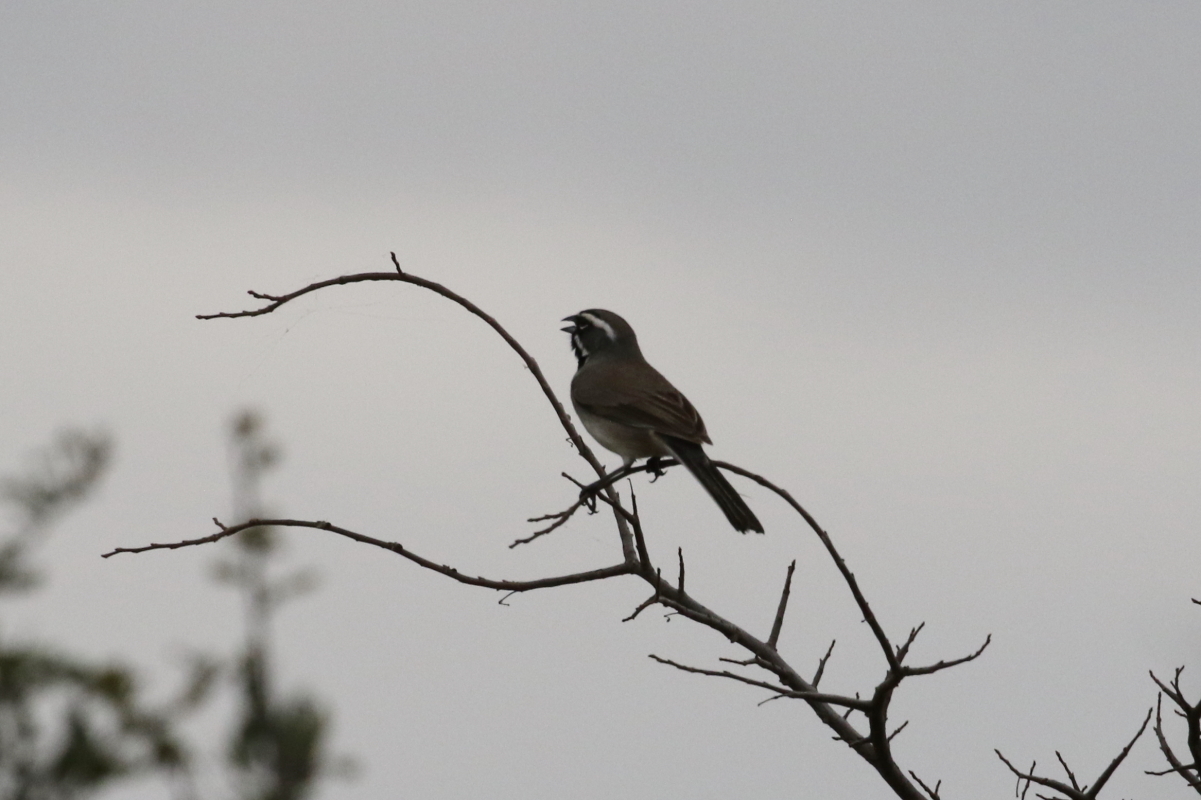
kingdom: Animalia
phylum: Chordata
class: Aves
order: Passeriformes
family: Passerellidae
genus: Amphispiza
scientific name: Amphispiza bilineata
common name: Black-throated sparrow
